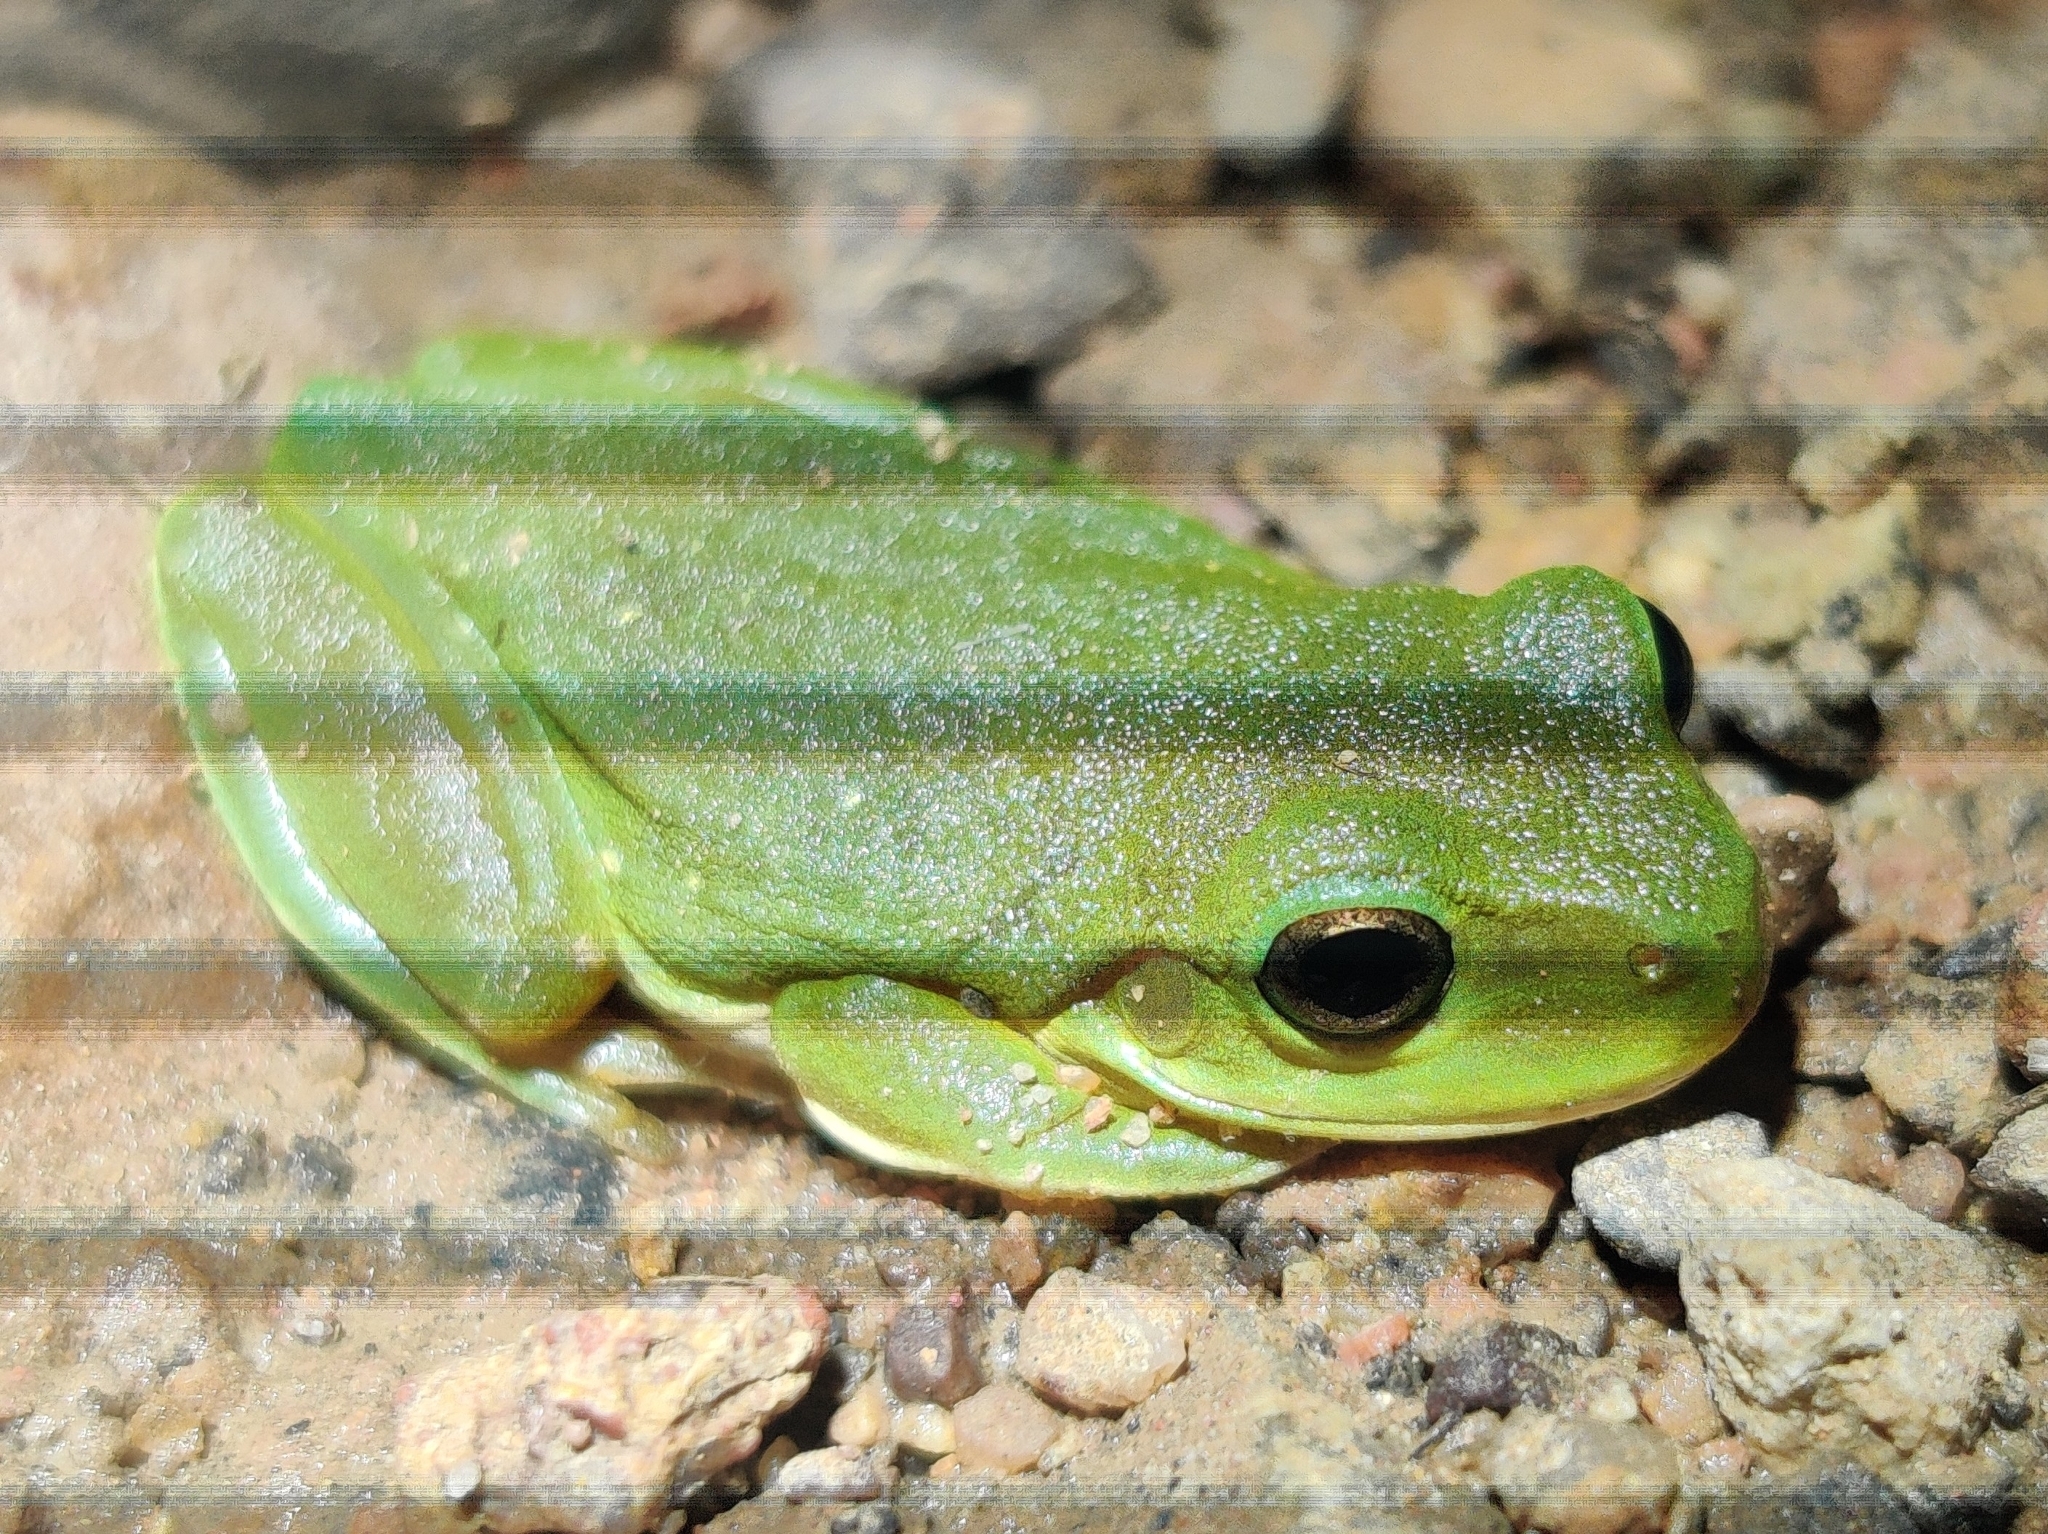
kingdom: Animalia
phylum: Chordata
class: Amphibia
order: Anura
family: Pelodryadidae
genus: Ranoidea
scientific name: Ranoidea caerulea
